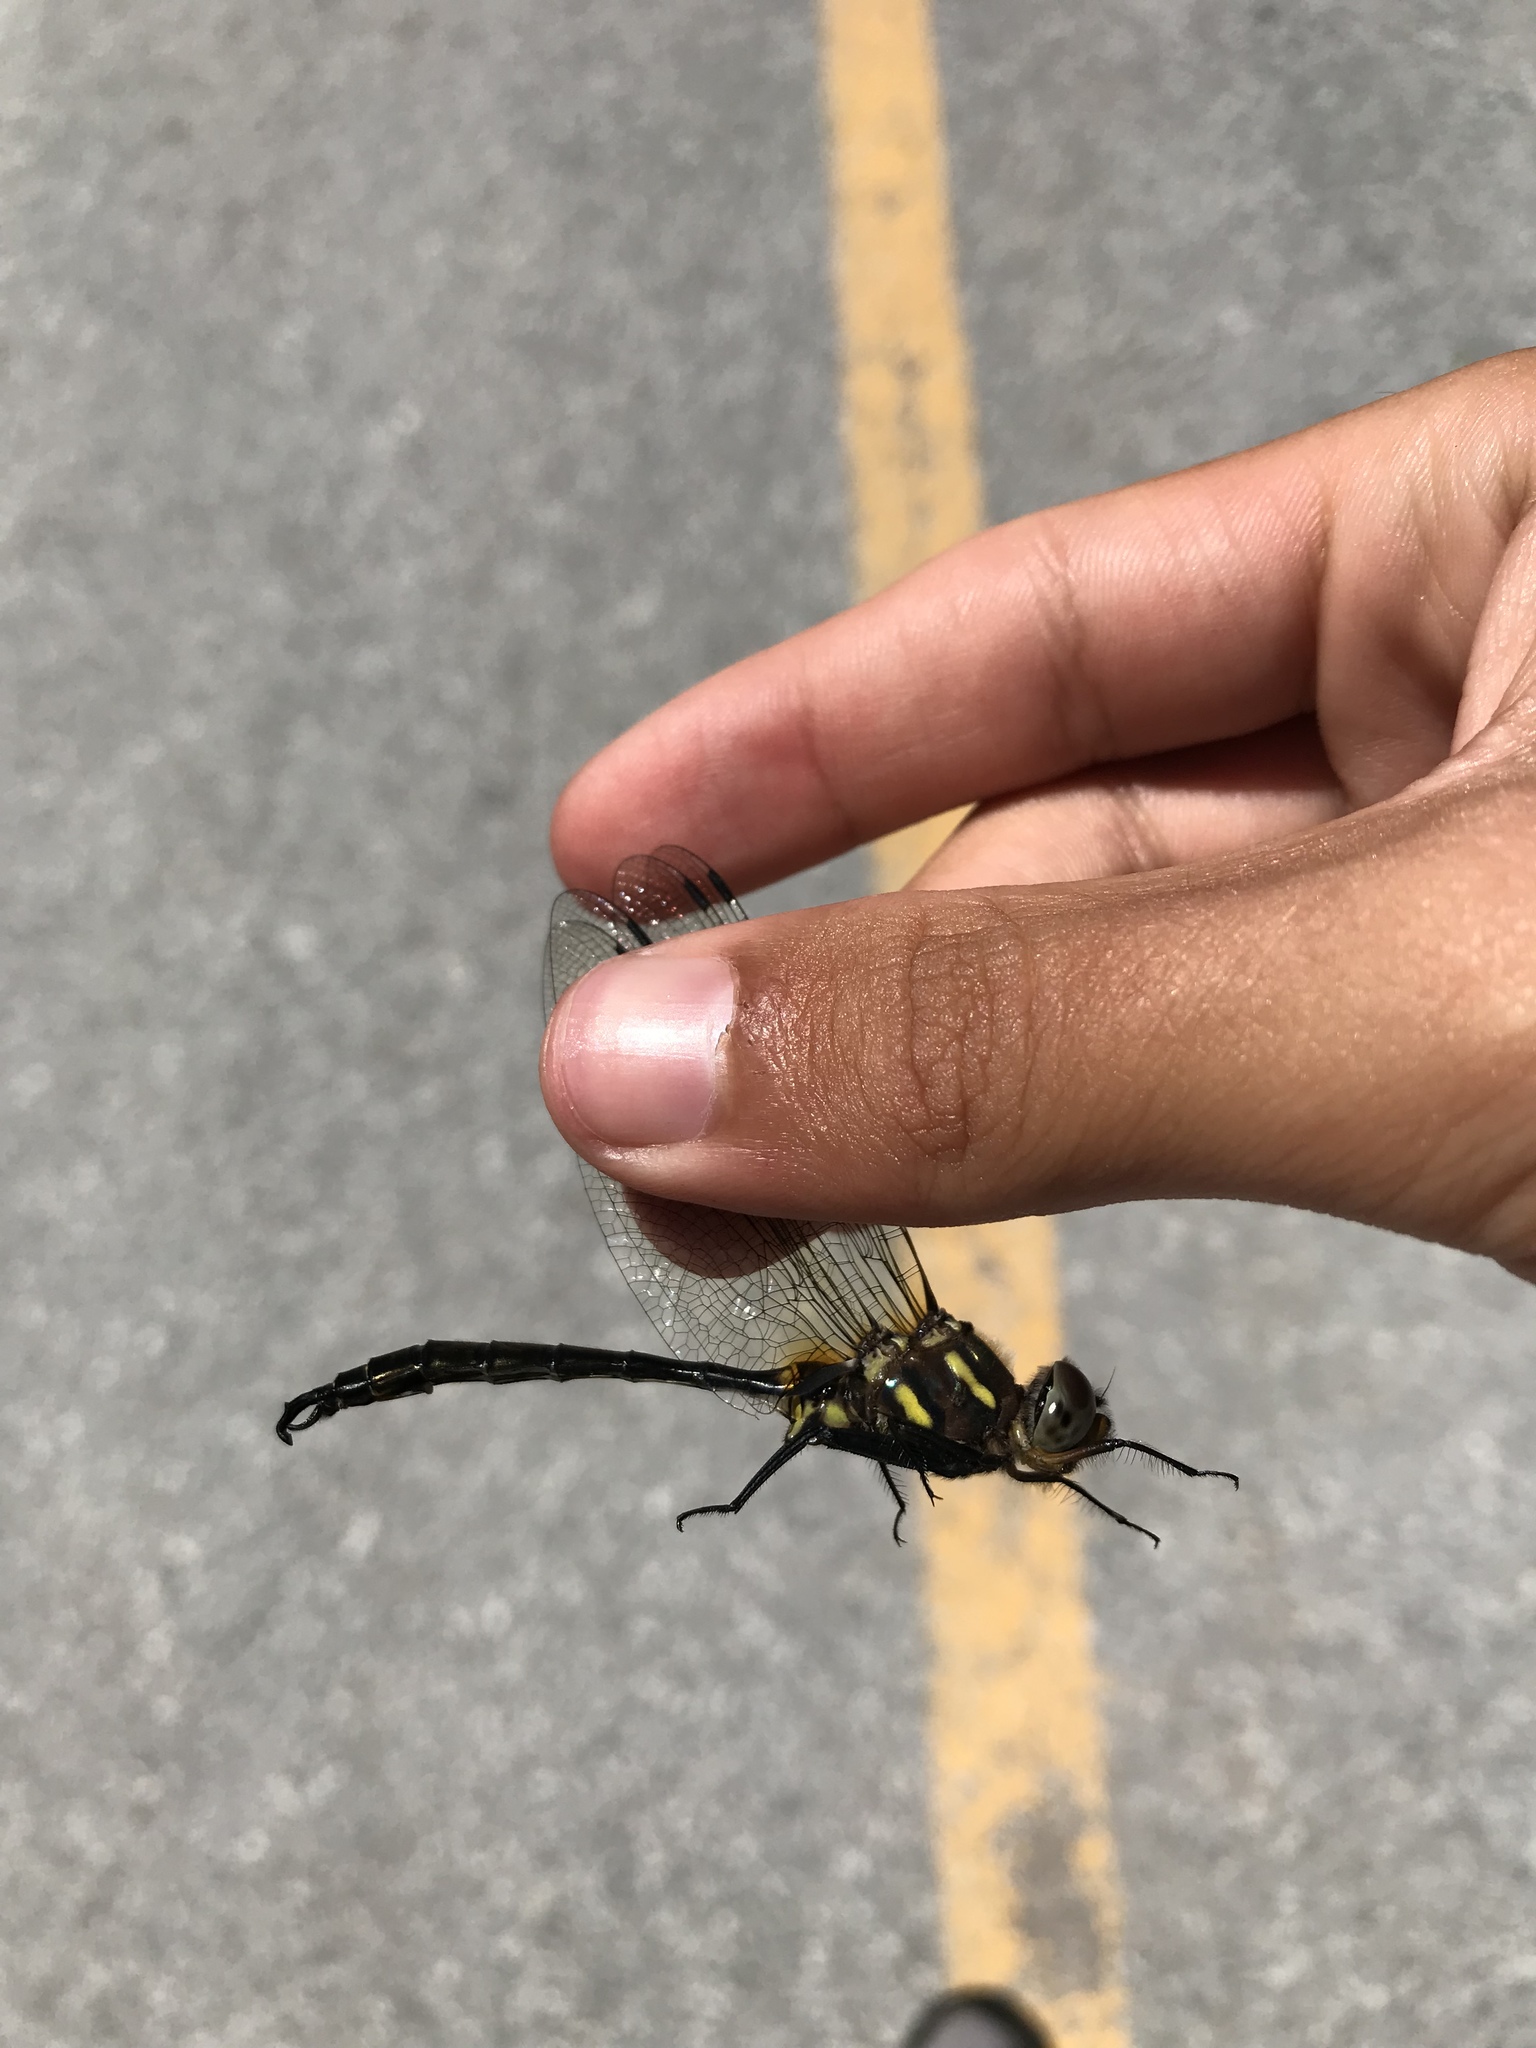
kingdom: Animalia
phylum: Arthropoda
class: Insecta
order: Odonata
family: Corduliidae
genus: Somatochlora
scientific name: Somatochlora hineana
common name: Hine's emerald
